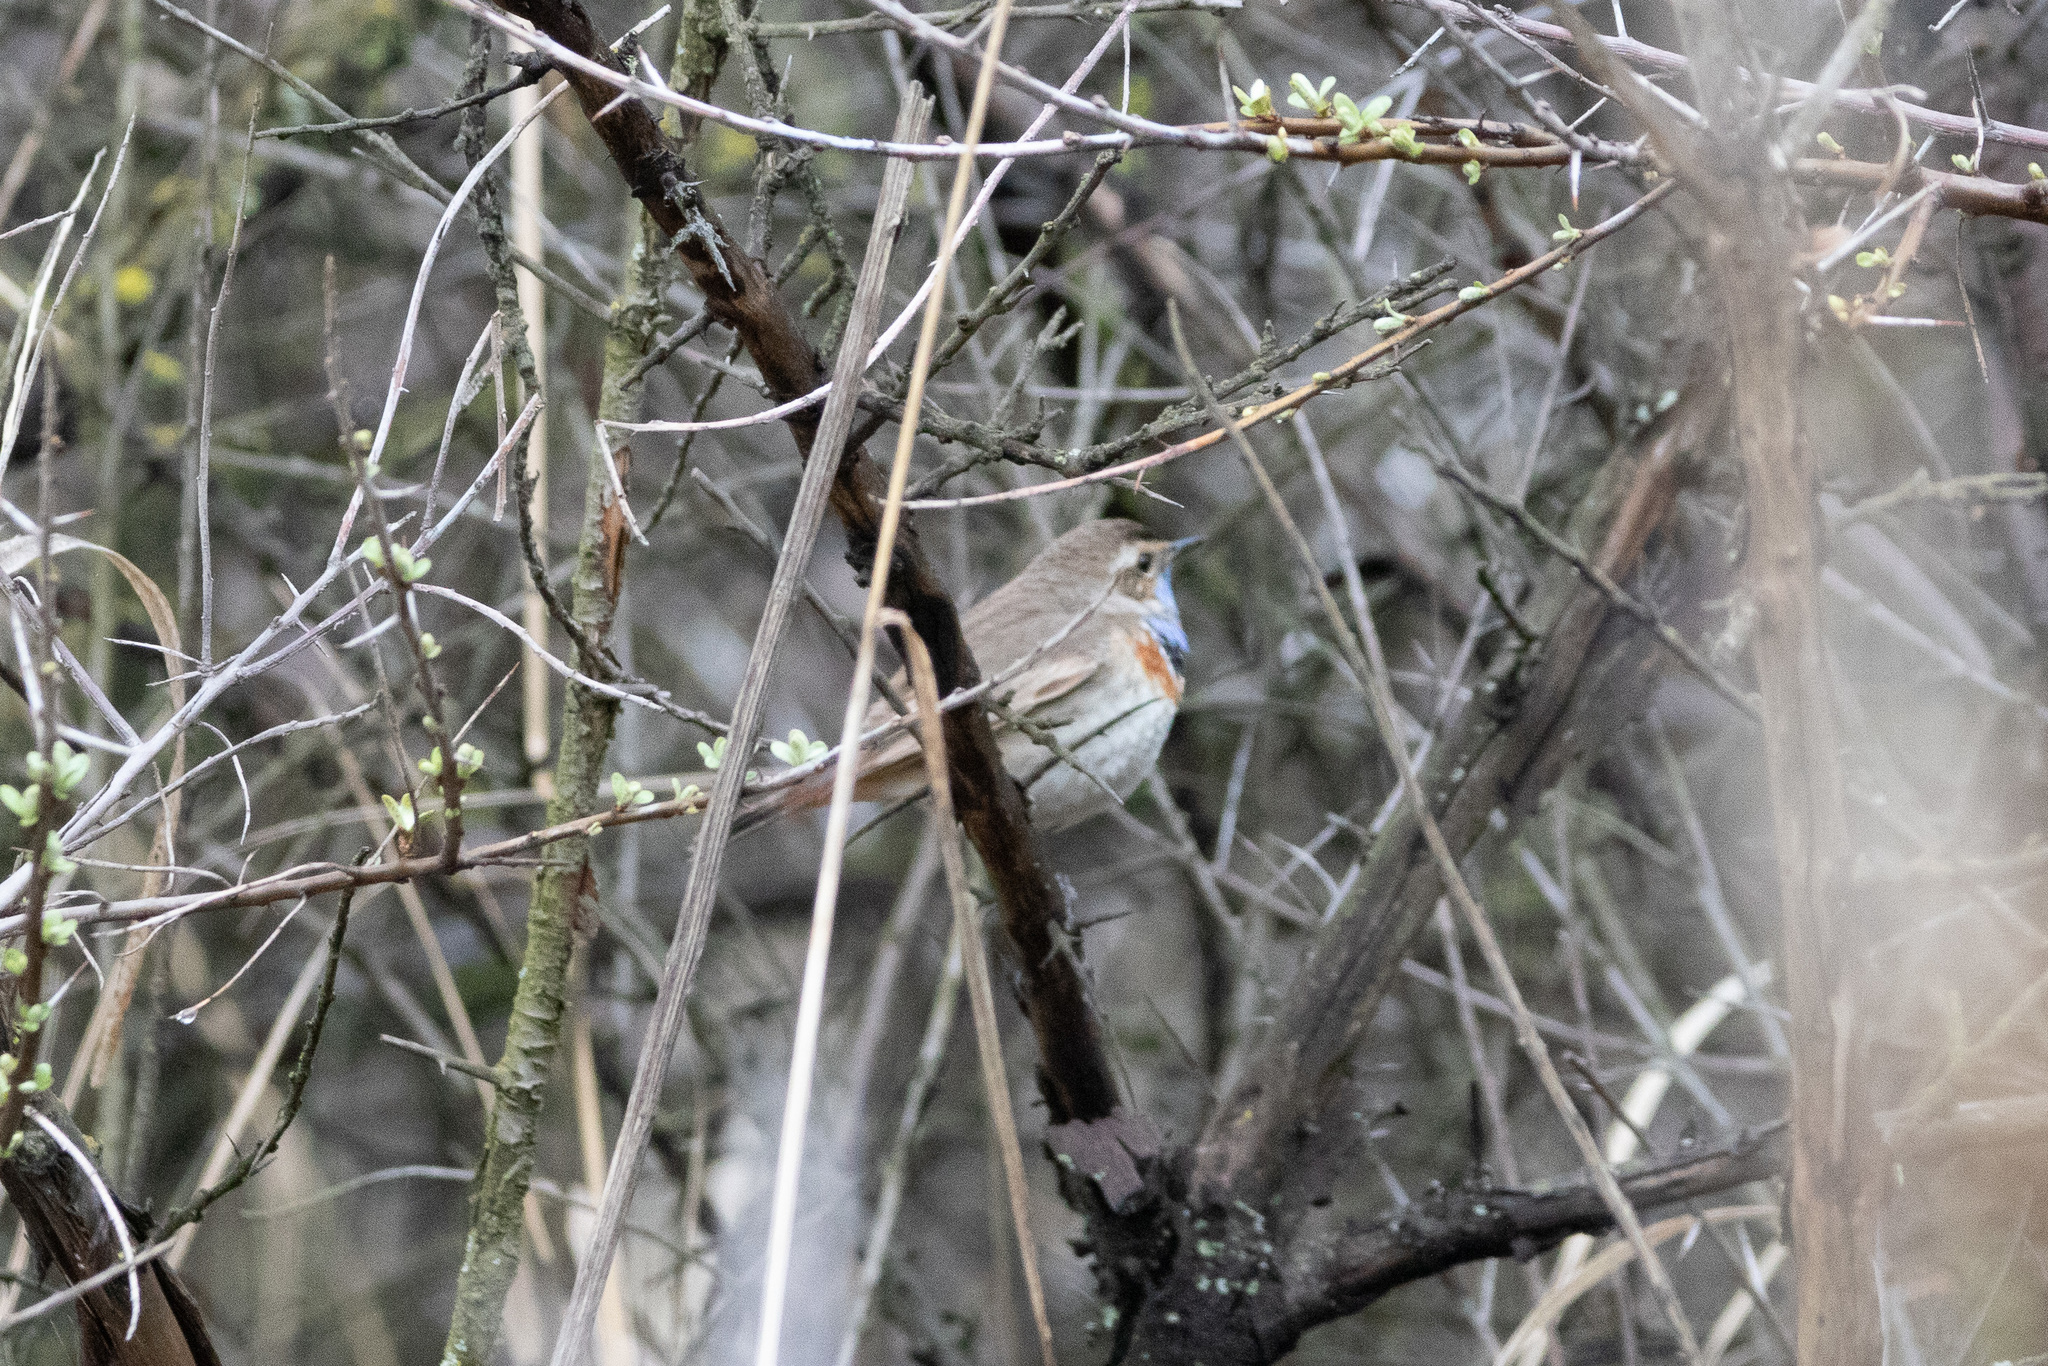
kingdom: Animalia
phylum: Chordata
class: Aves
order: Passeriformes
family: Muscicapidae
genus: Luscinia
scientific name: Luscinia svecica
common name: Bluethroat
